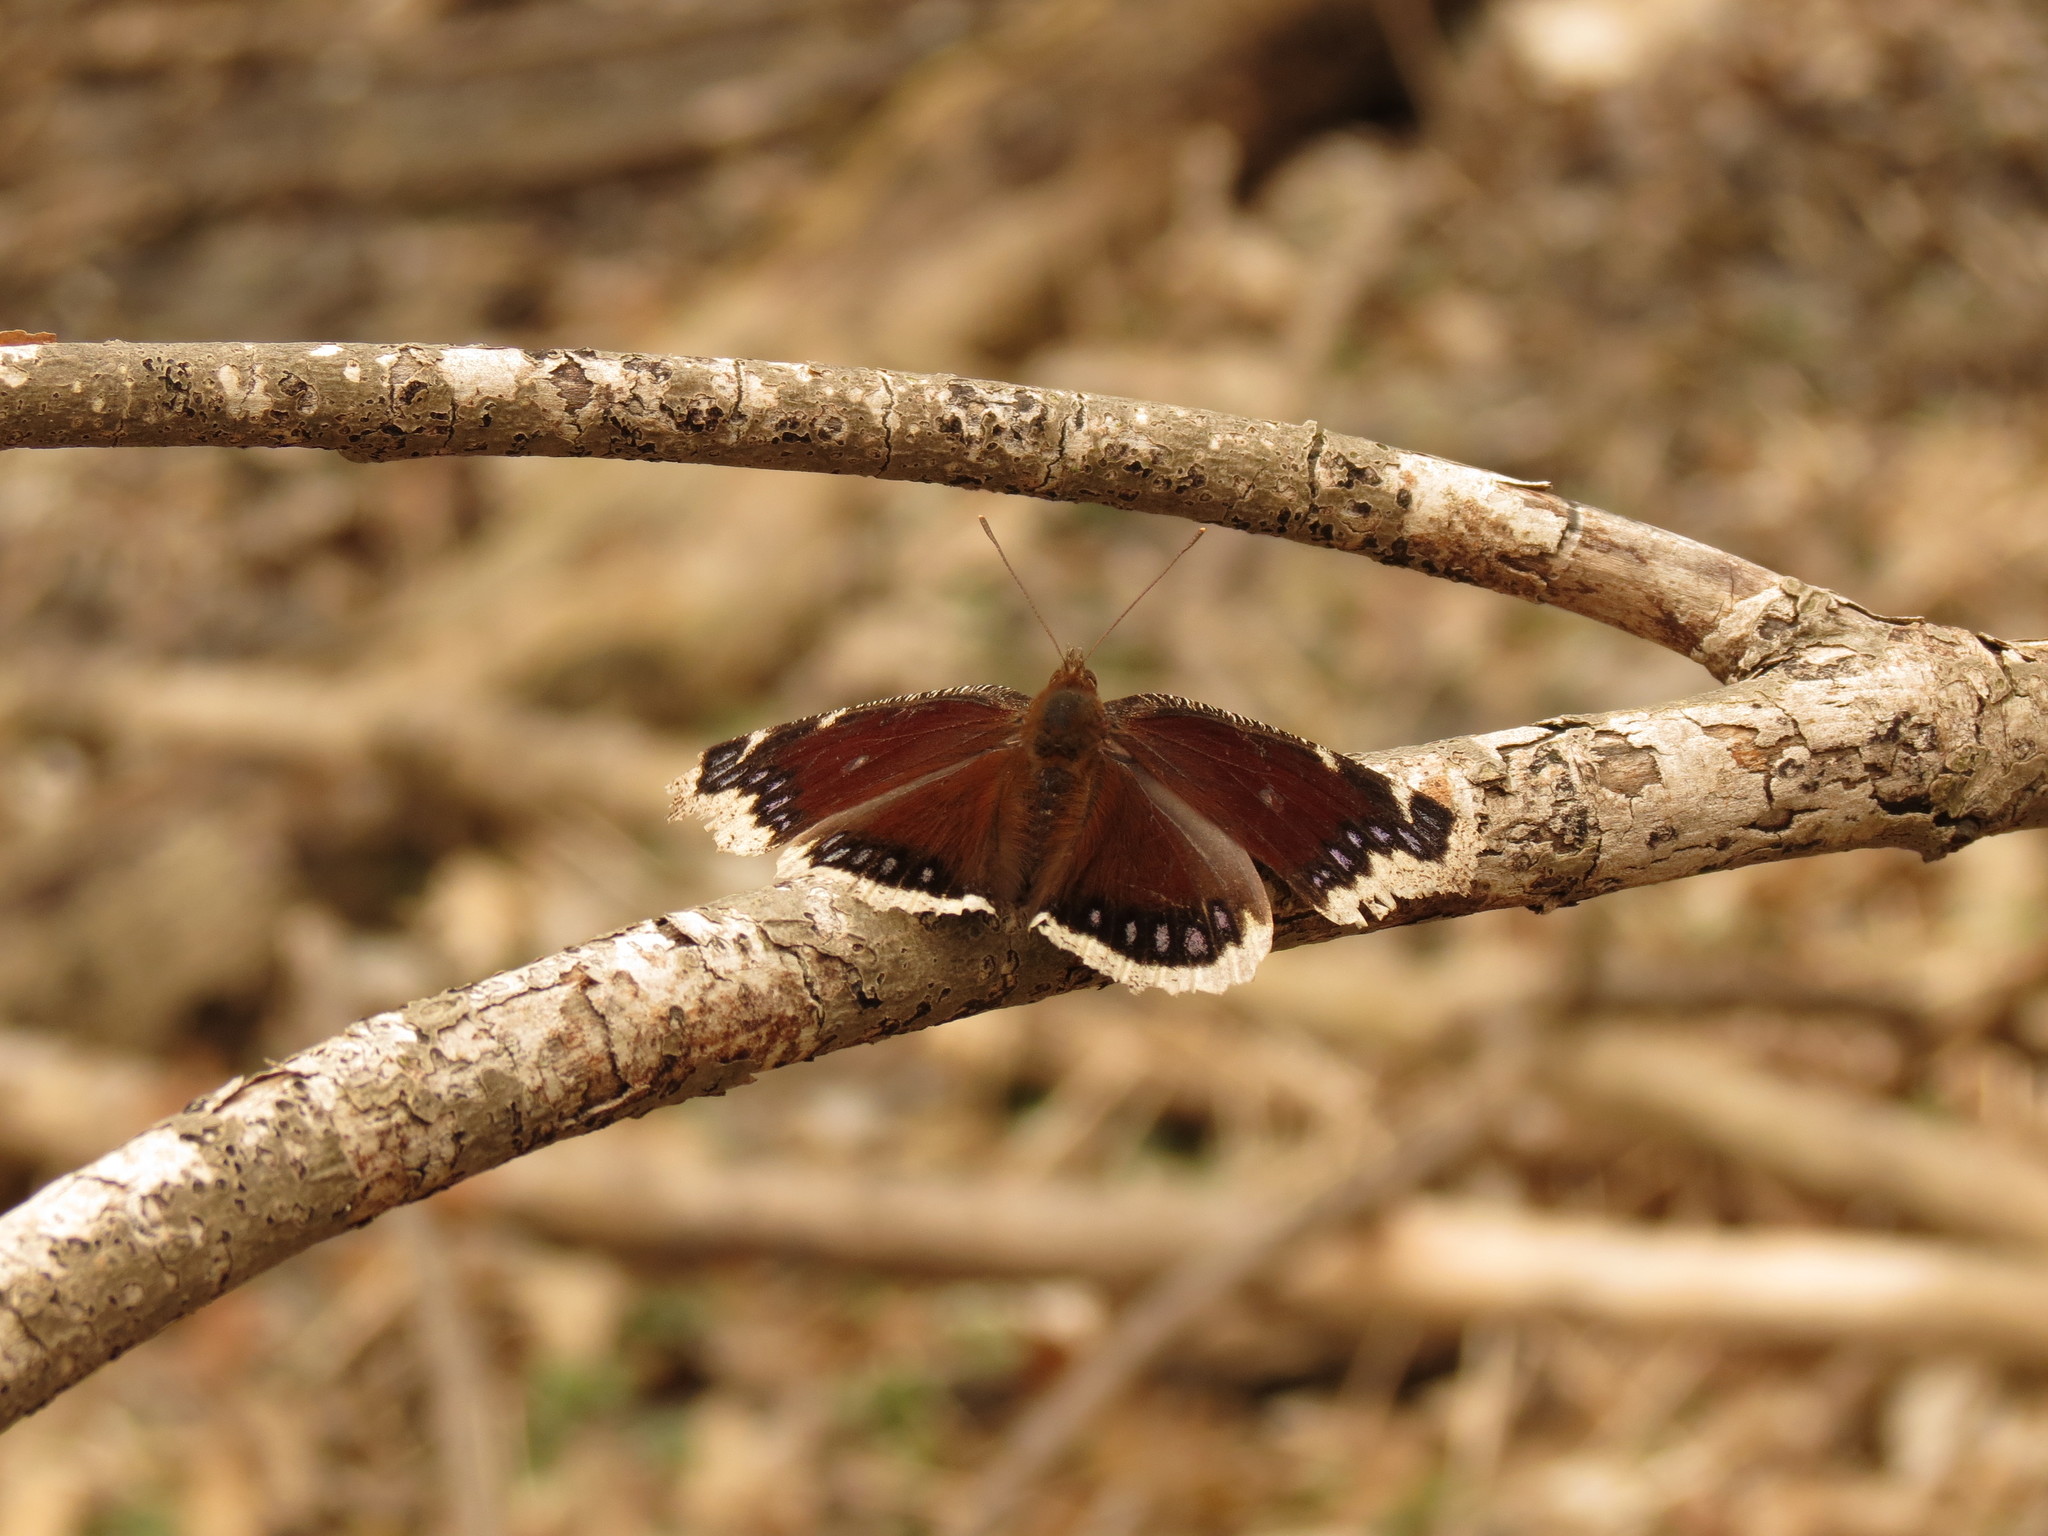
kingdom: Animalia
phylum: Arthropoda
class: Insecta
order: Lepidoptera
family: Nymphalidae
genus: Nymphalis
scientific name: Nymphalis antiopa
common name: Camberwell beauty
